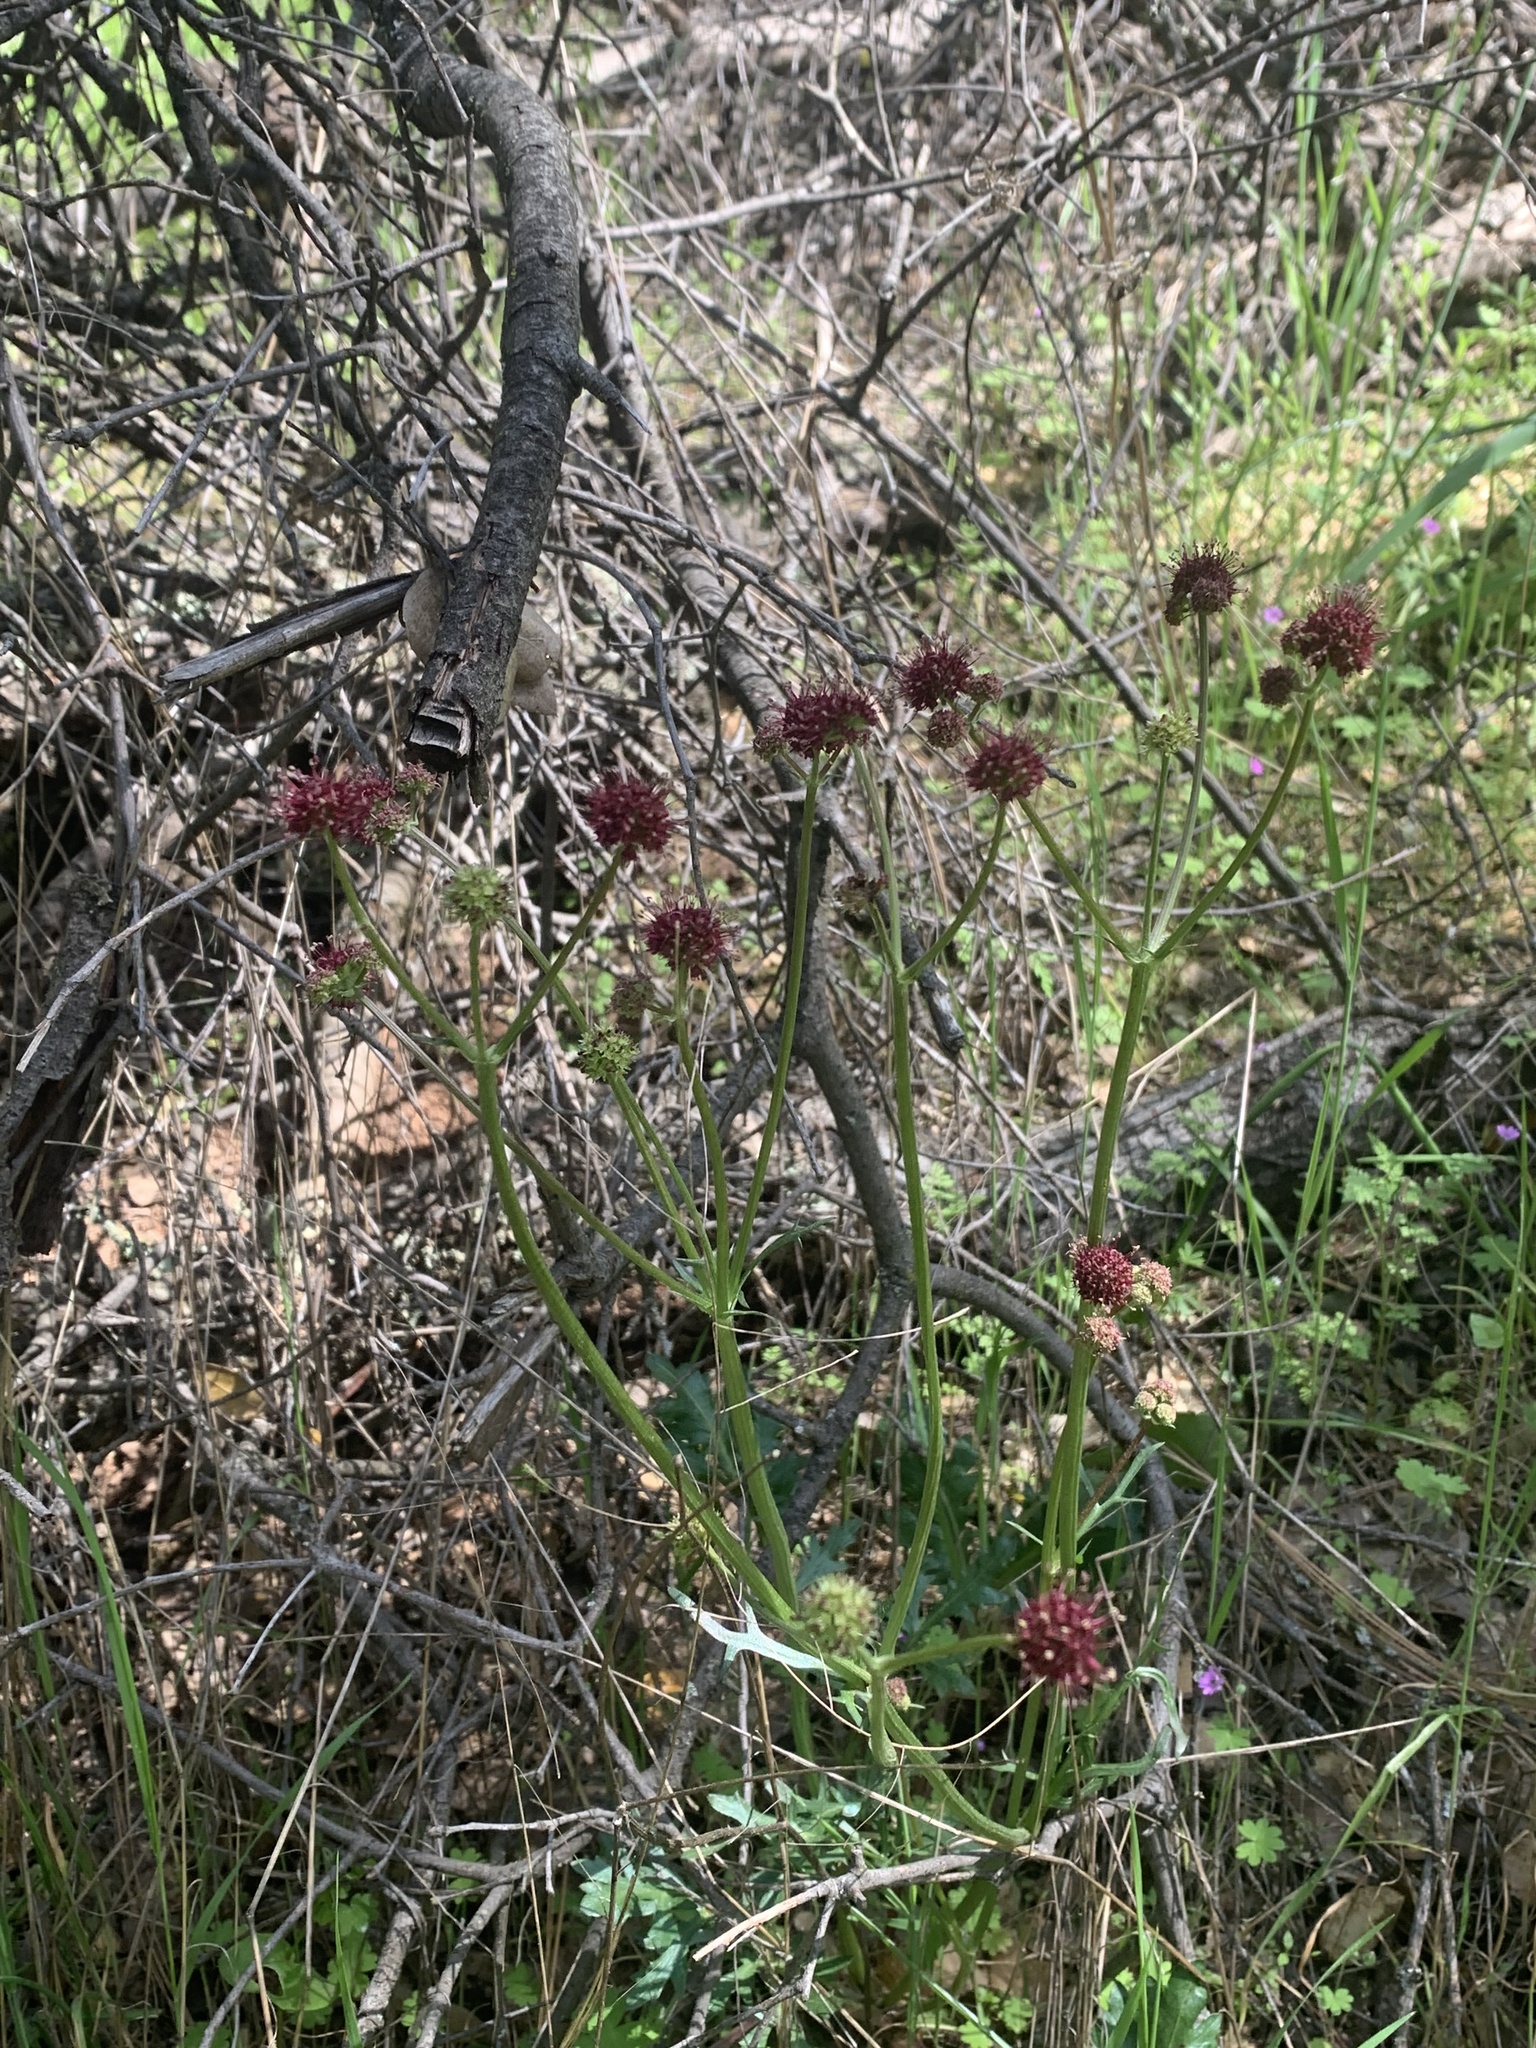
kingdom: Plantae
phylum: Tracheophyta
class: Magnoliopsida
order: Apiales
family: Apiaceae
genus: Sanicula
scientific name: Sanicula bipinnatifida
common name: Shoe-buttons
